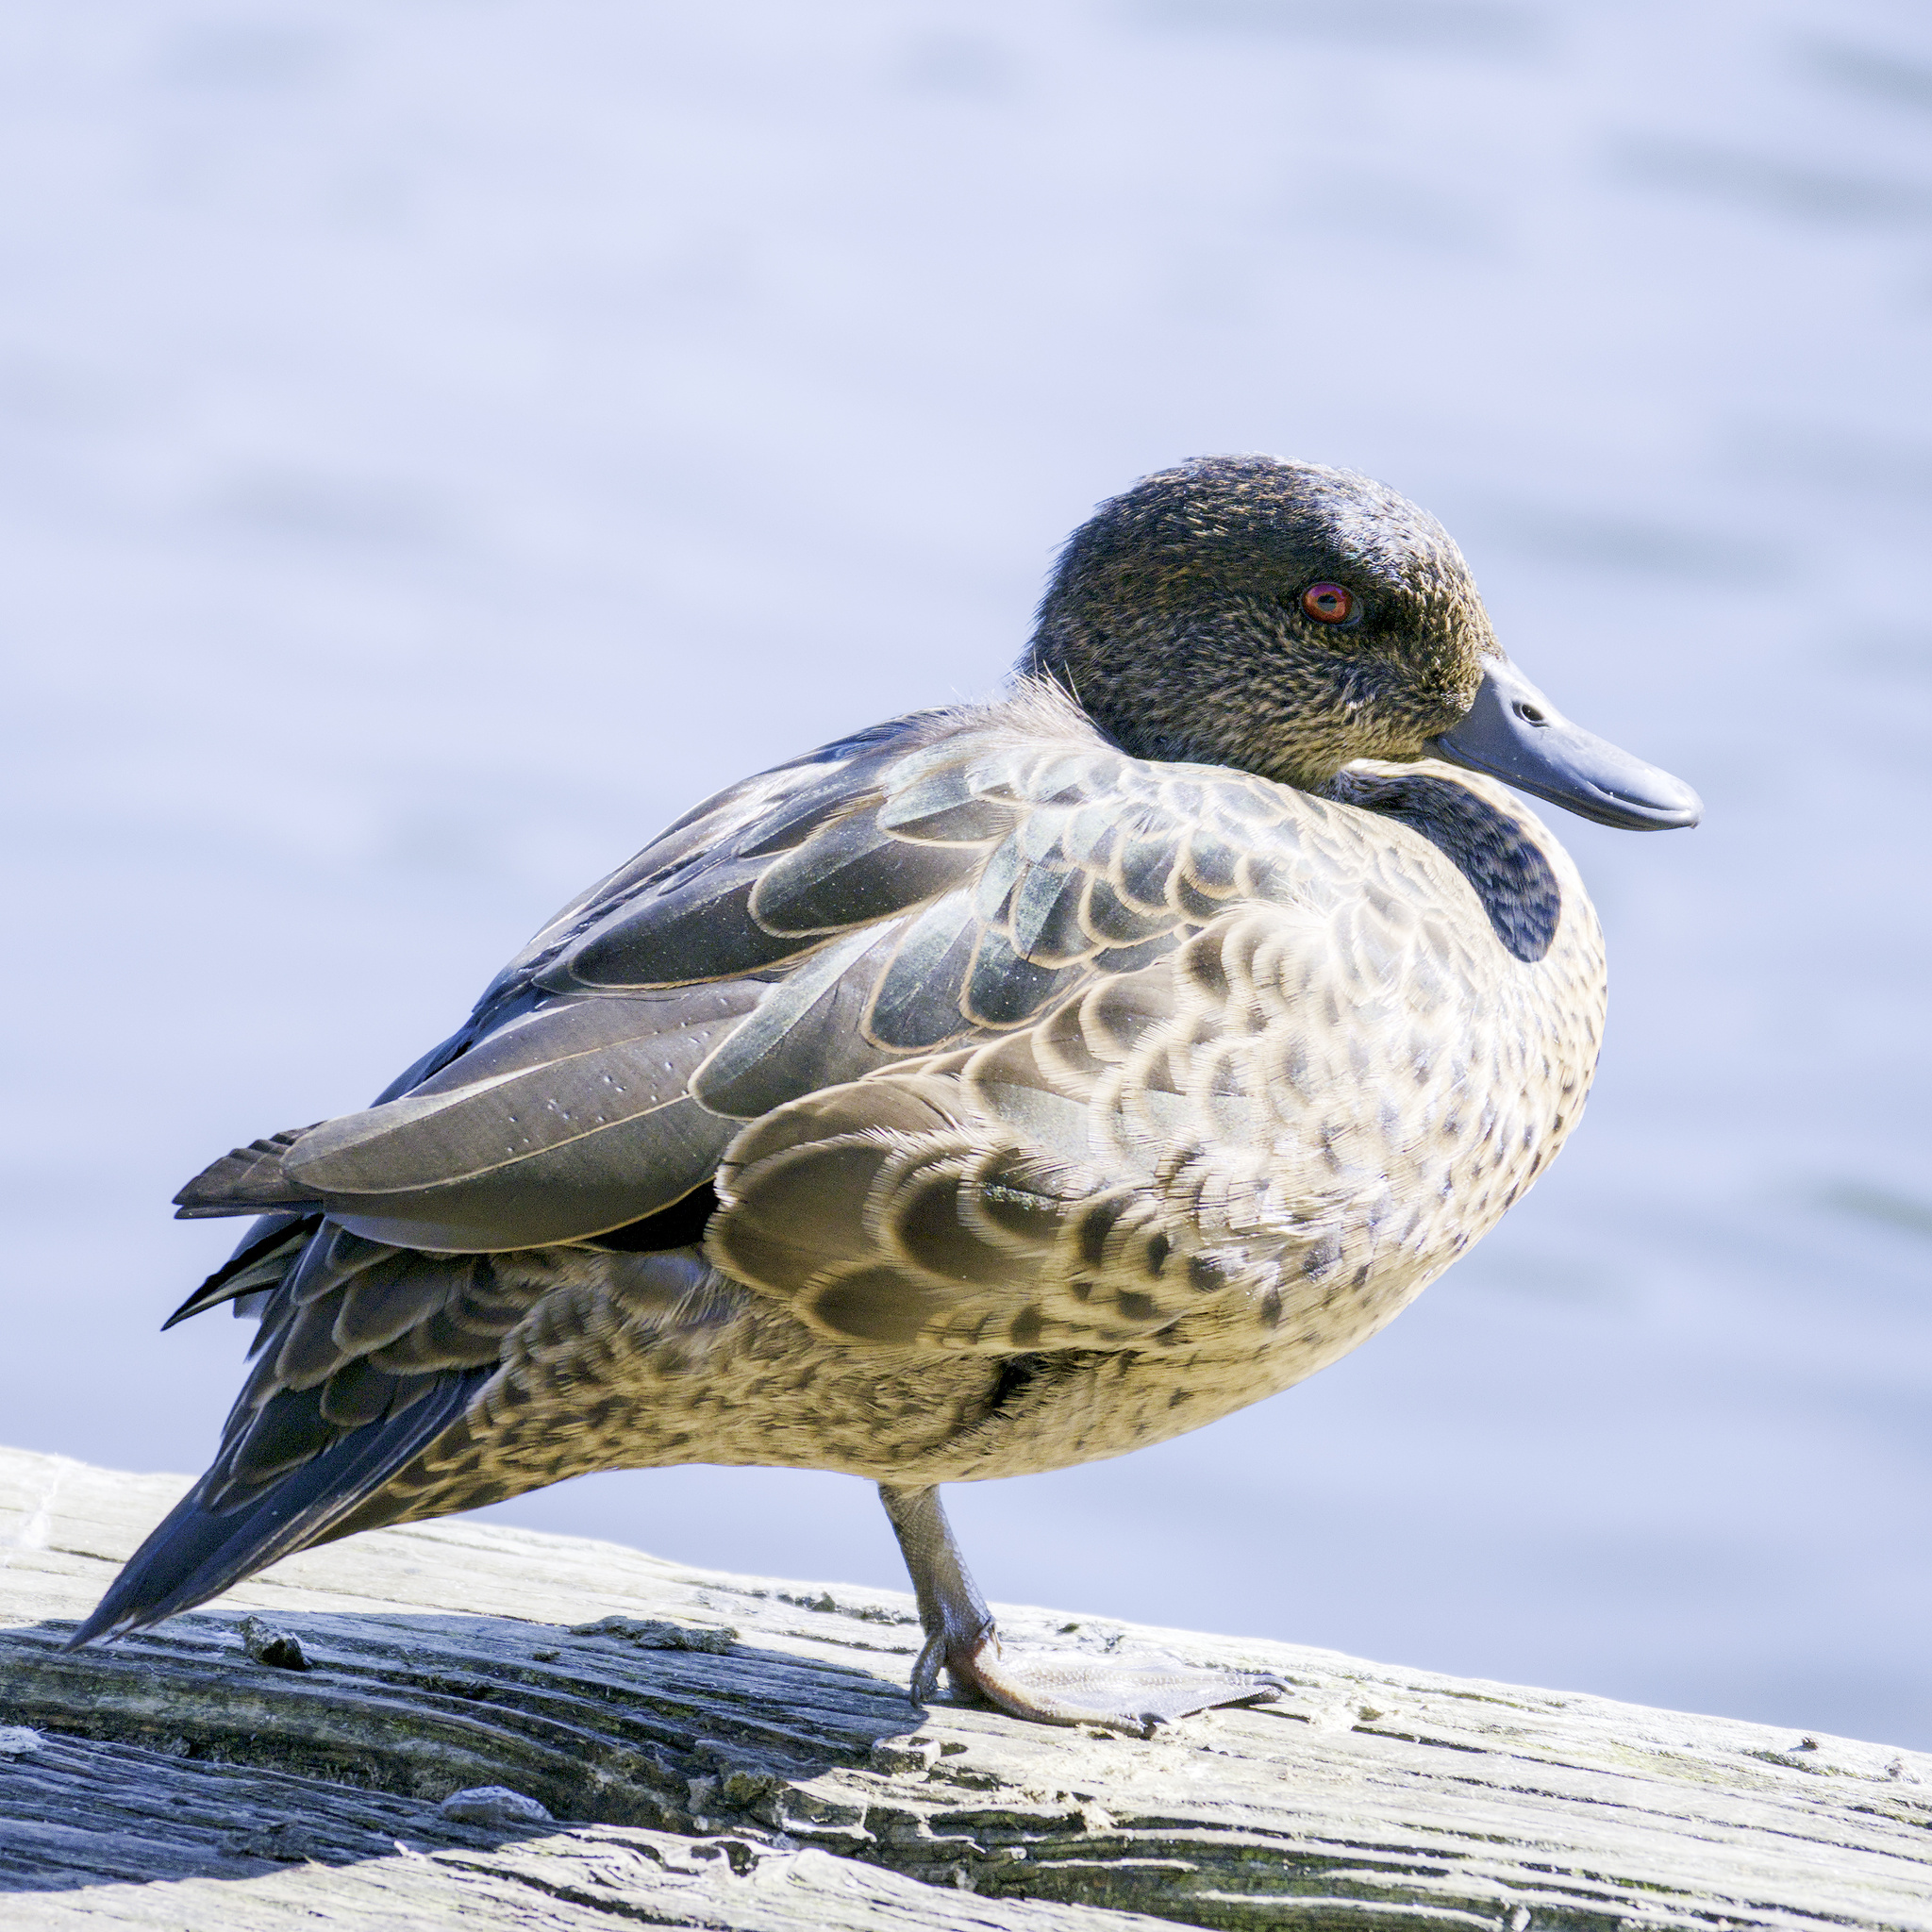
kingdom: Animalia
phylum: Chordata
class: Aves
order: Anseriformes
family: Anatidae
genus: Anas
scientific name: Anas castanea
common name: Chestnut teal
